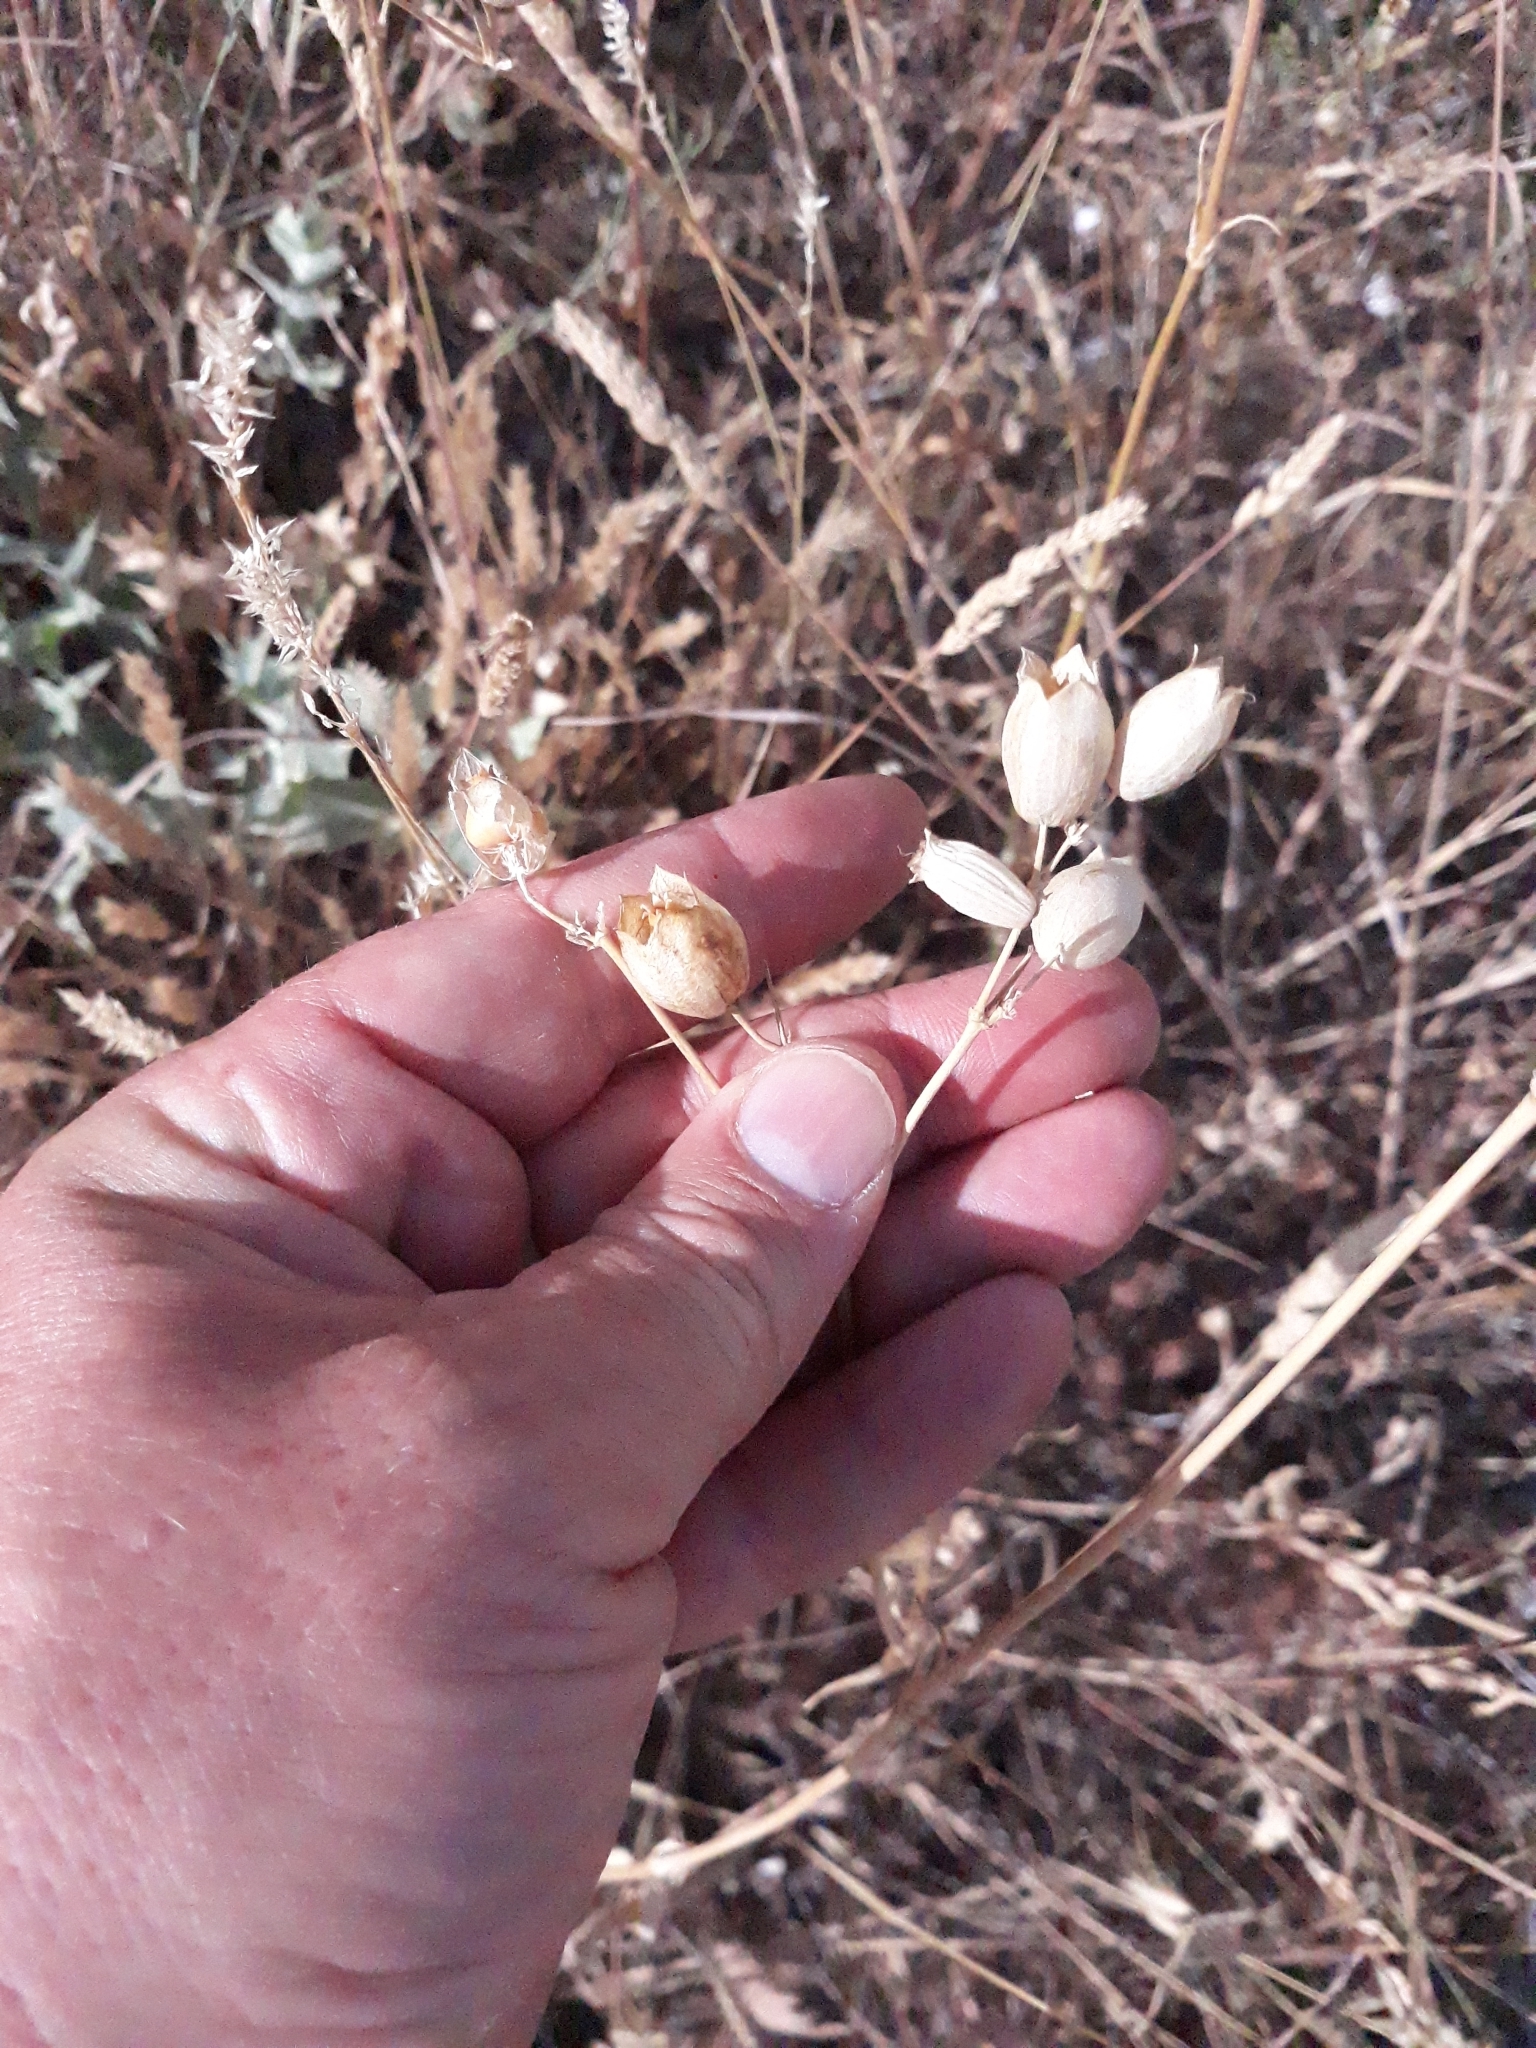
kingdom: Plantae
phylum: Tracheophyta
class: Magnoliopsida
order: Ranunculales
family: Ranunculaceae
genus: Nigella
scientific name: Nigella damascena
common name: Love-in-a-mist
